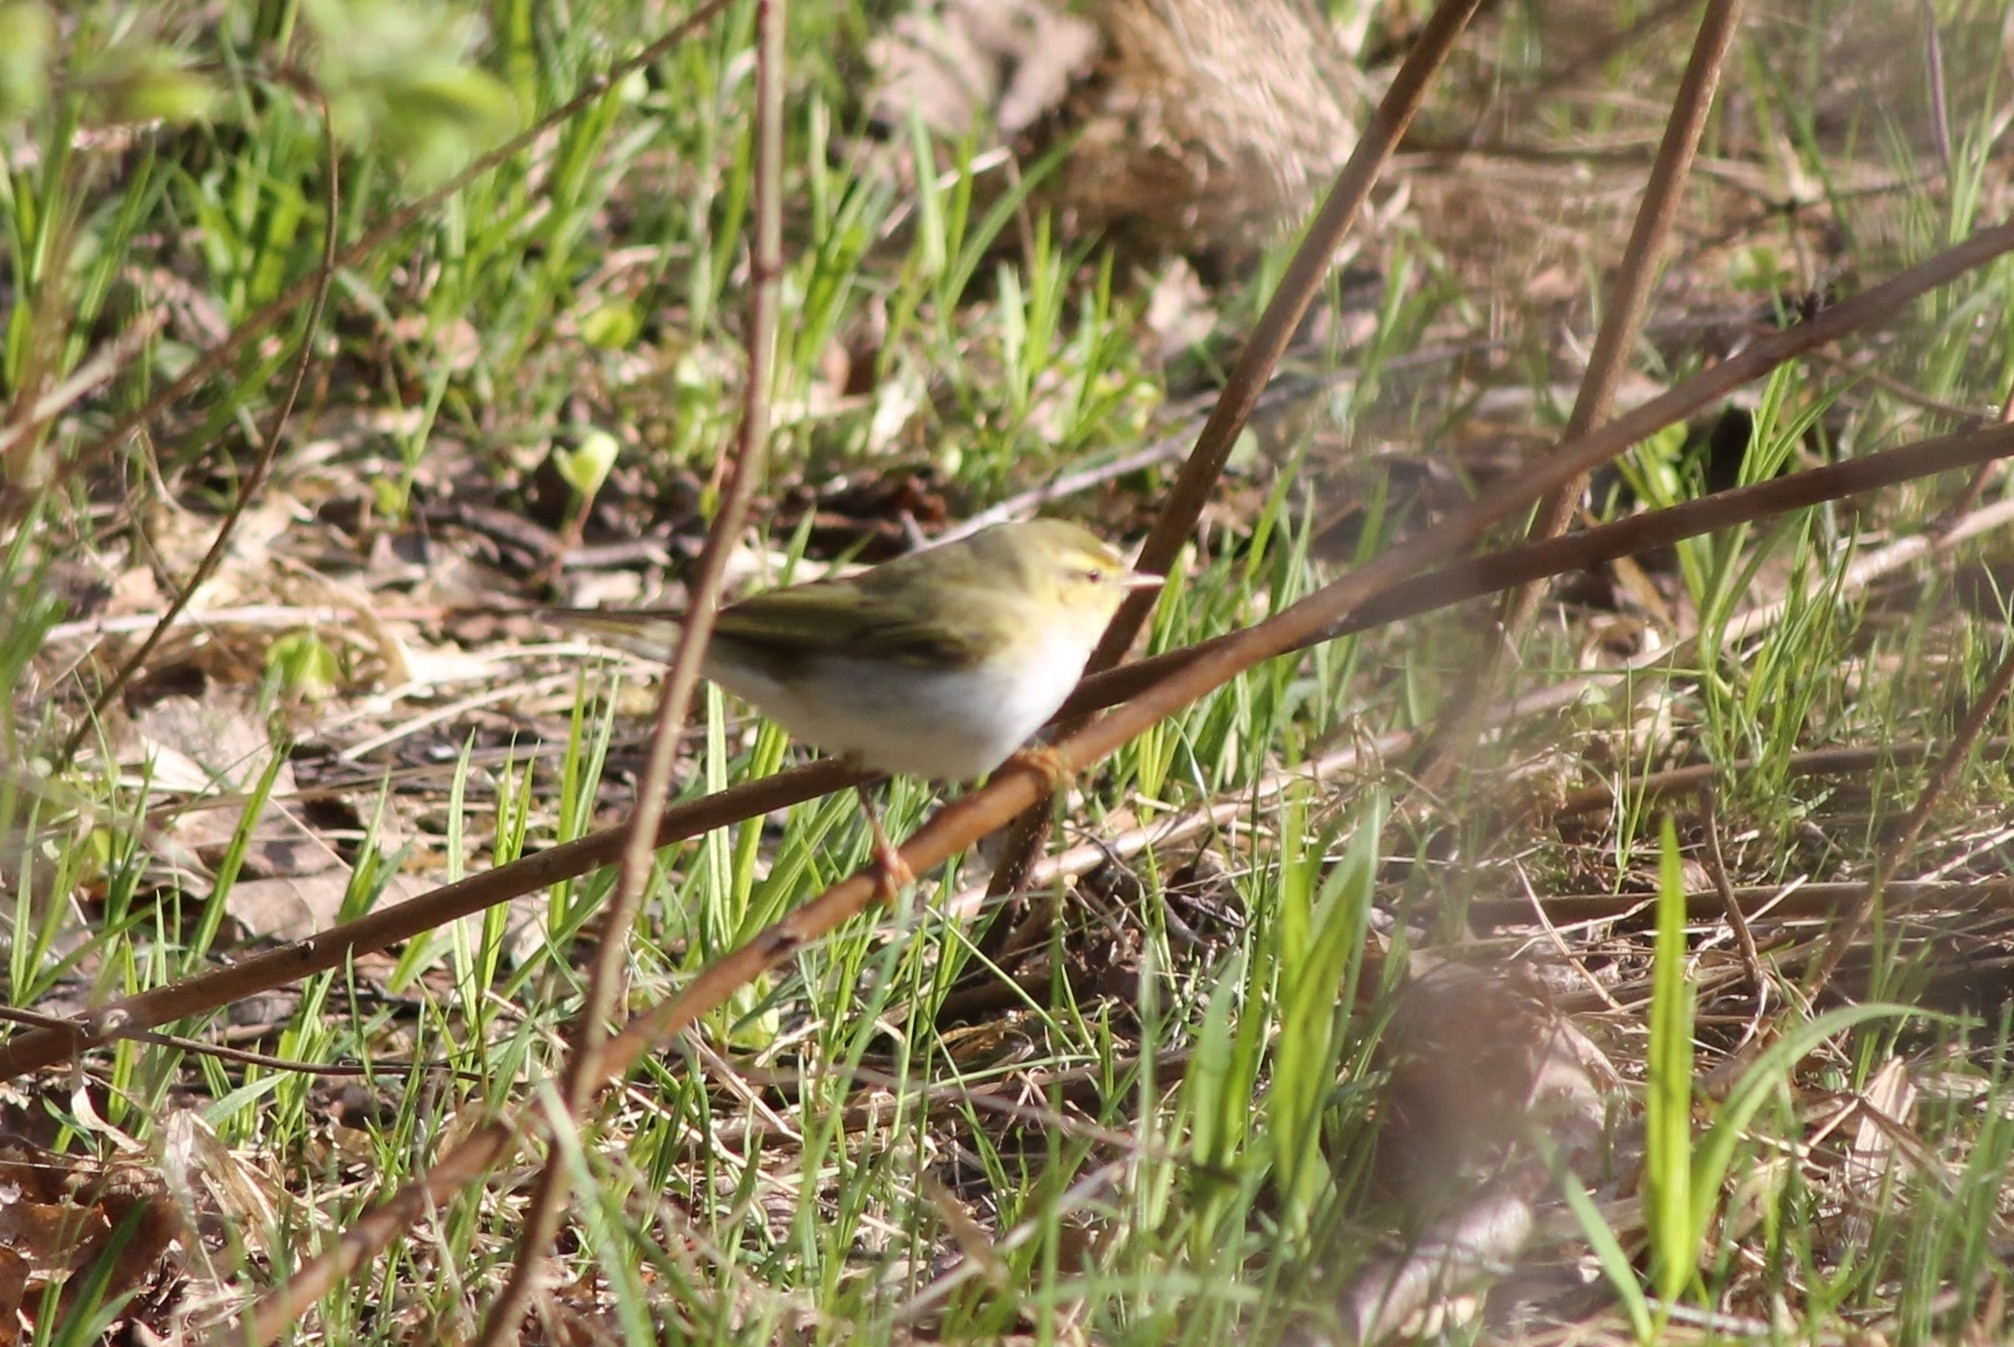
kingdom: Animalia
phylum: Chordata
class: Aves
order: Passeriformes
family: Phylloscopidae
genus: Phylloscopus
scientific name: Phylloscopus sibillatrix
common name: Wood warbler
